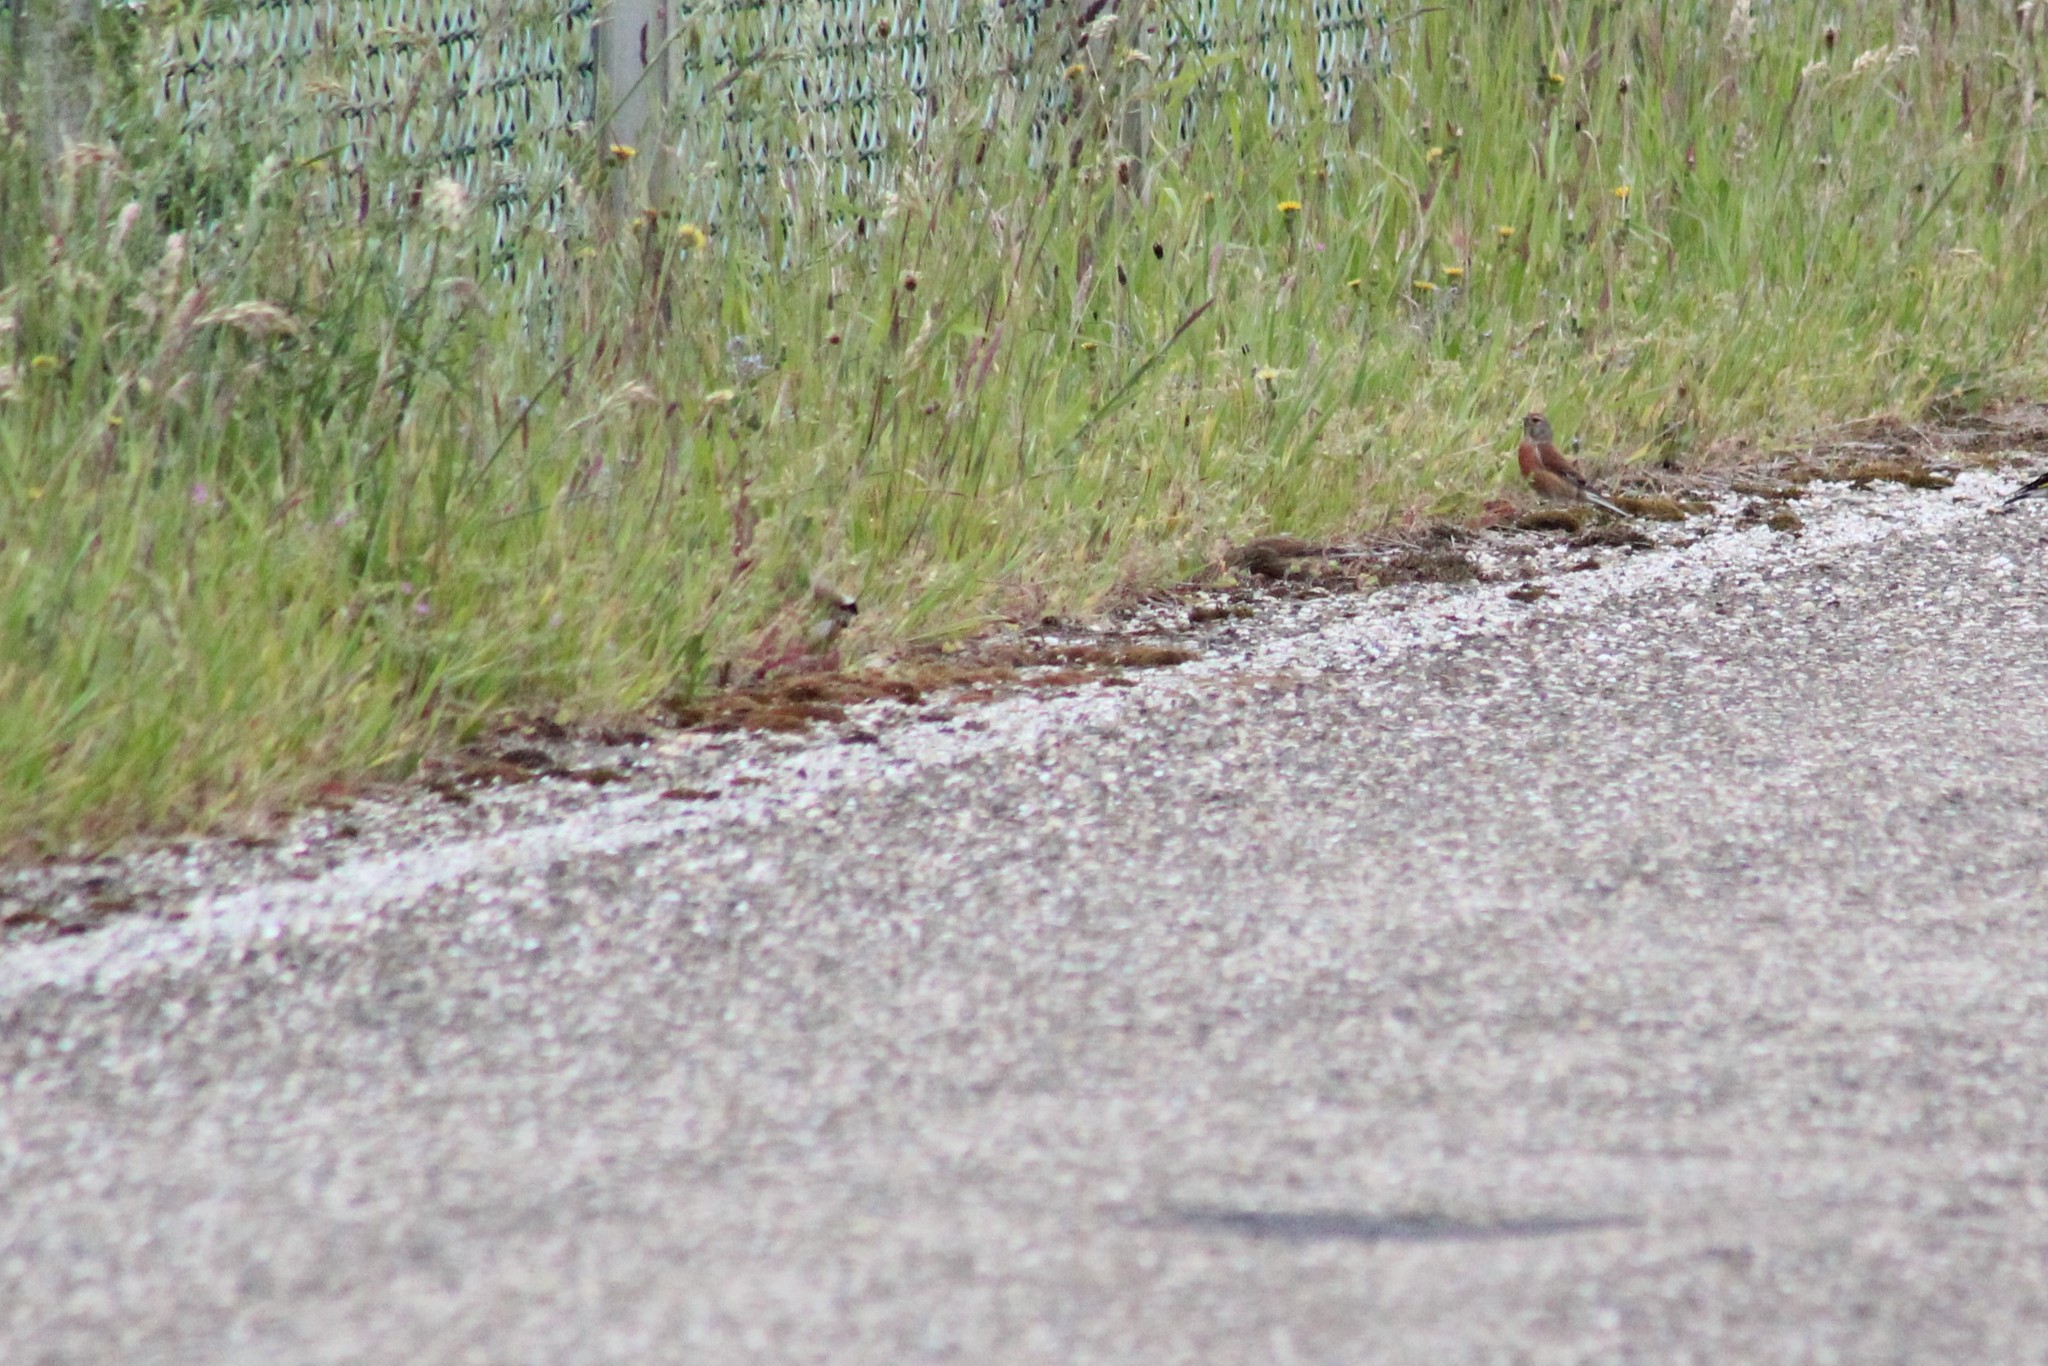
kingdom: Animalia
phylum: Chordata
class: Aves
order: Passeriformes
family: Fringillidae
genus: Linaria
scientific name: Linaria cannabina
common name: Common linnet
